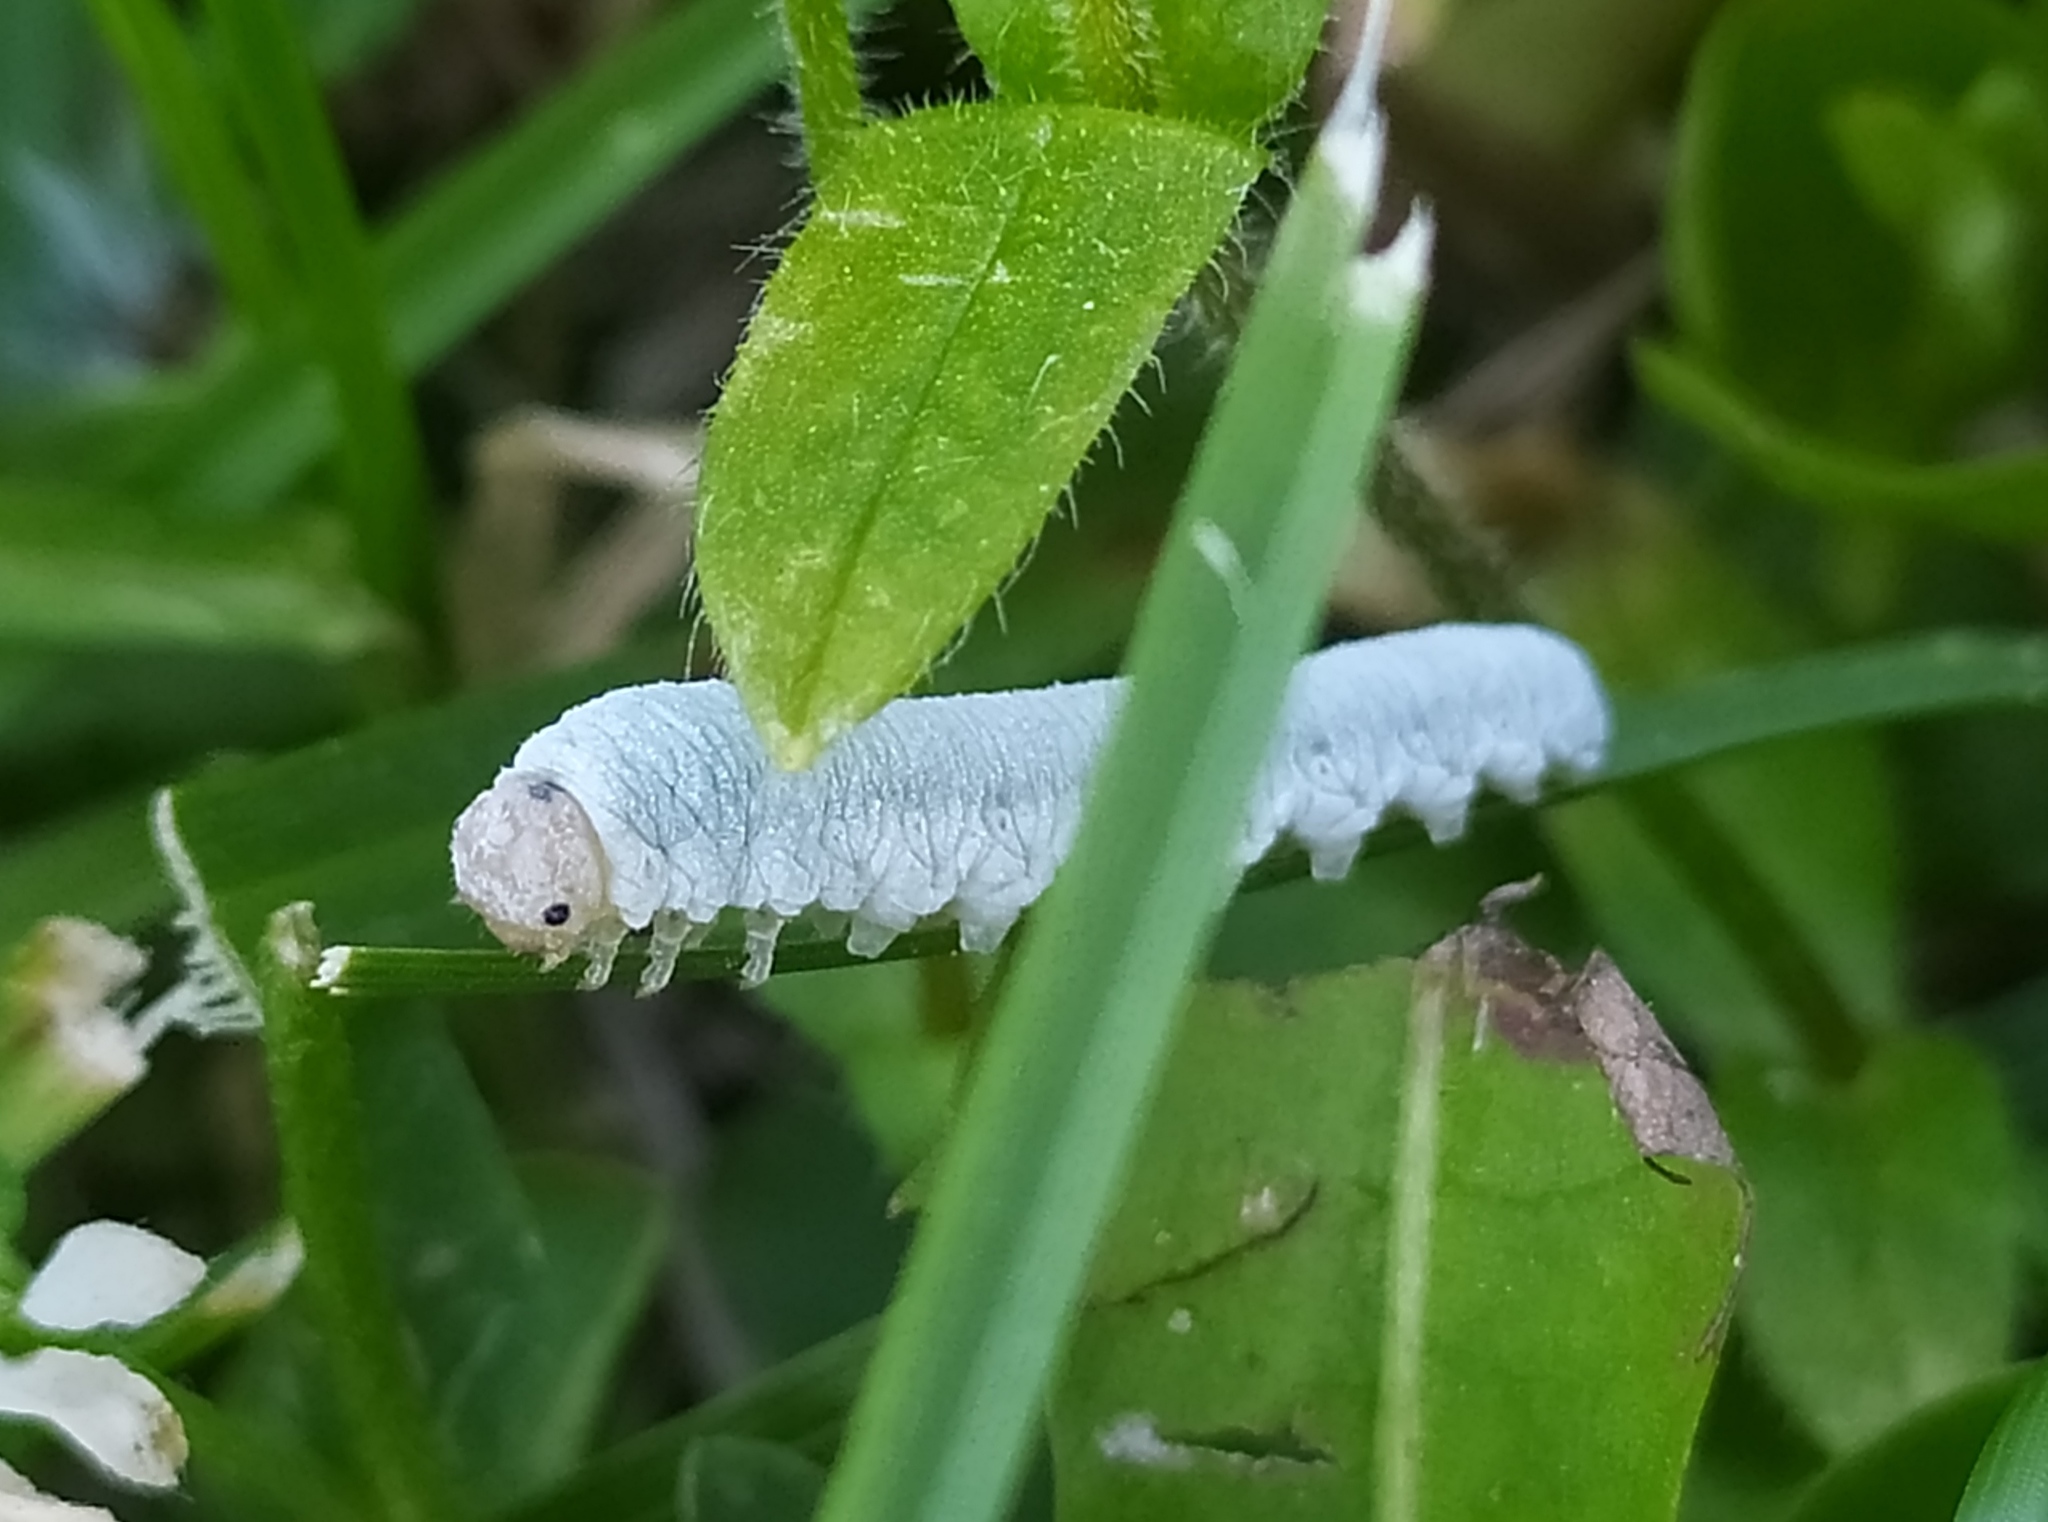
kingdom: Animalia
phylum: Arthropoda
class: Insecta
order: Hymenoptera
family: Tenthredinidae
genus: Monostegia
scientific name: Monostegia abdominalis
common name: Tenthredid wasp
